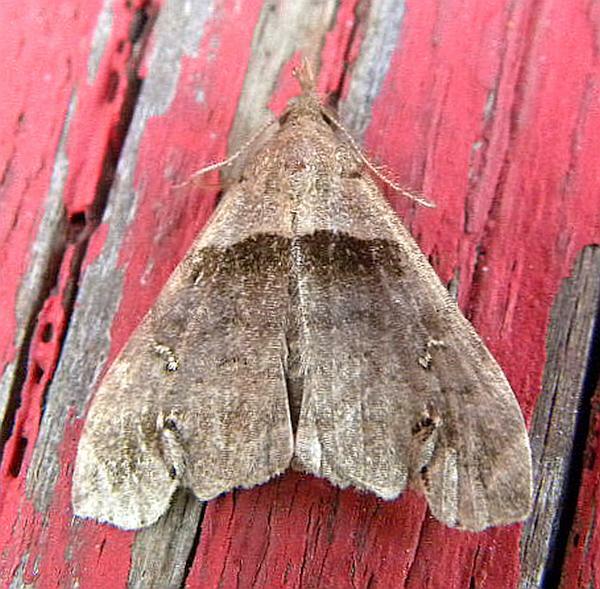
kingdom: Animalia
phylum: Arthropoda
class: Insecta
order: Lepidoptera
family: Erebidae
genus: Lascoria
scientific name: Lascoria ambigualis
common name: Ambiguous moth
